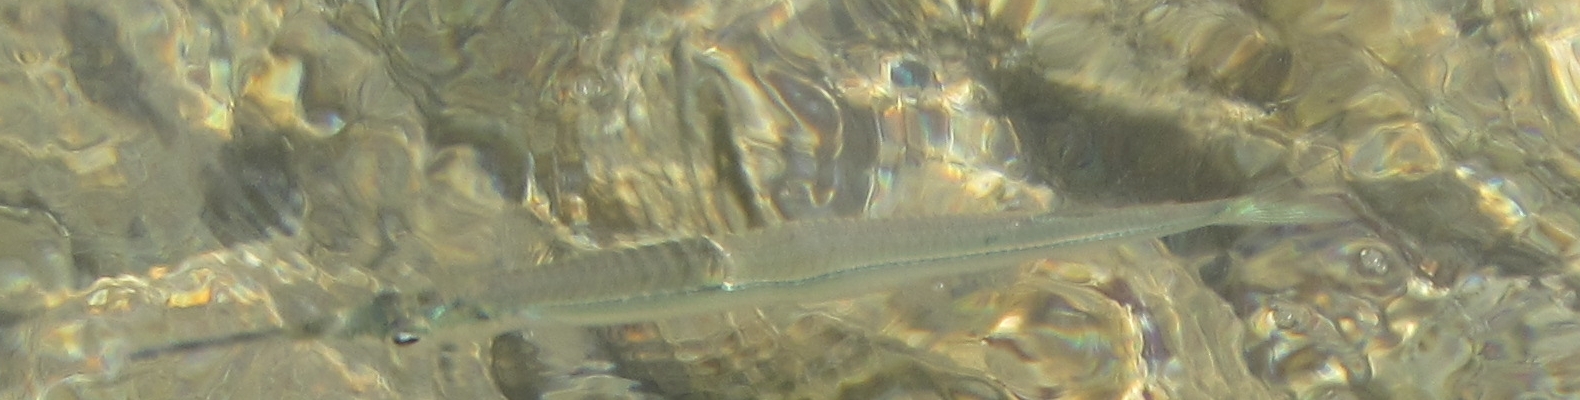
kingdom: Animalia
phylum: Chordata
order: Beloniformes
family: Hemiramphidae
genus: Hemiramphus
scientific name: Hemiramphus depauperatus
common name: Polynesian halfbeak
